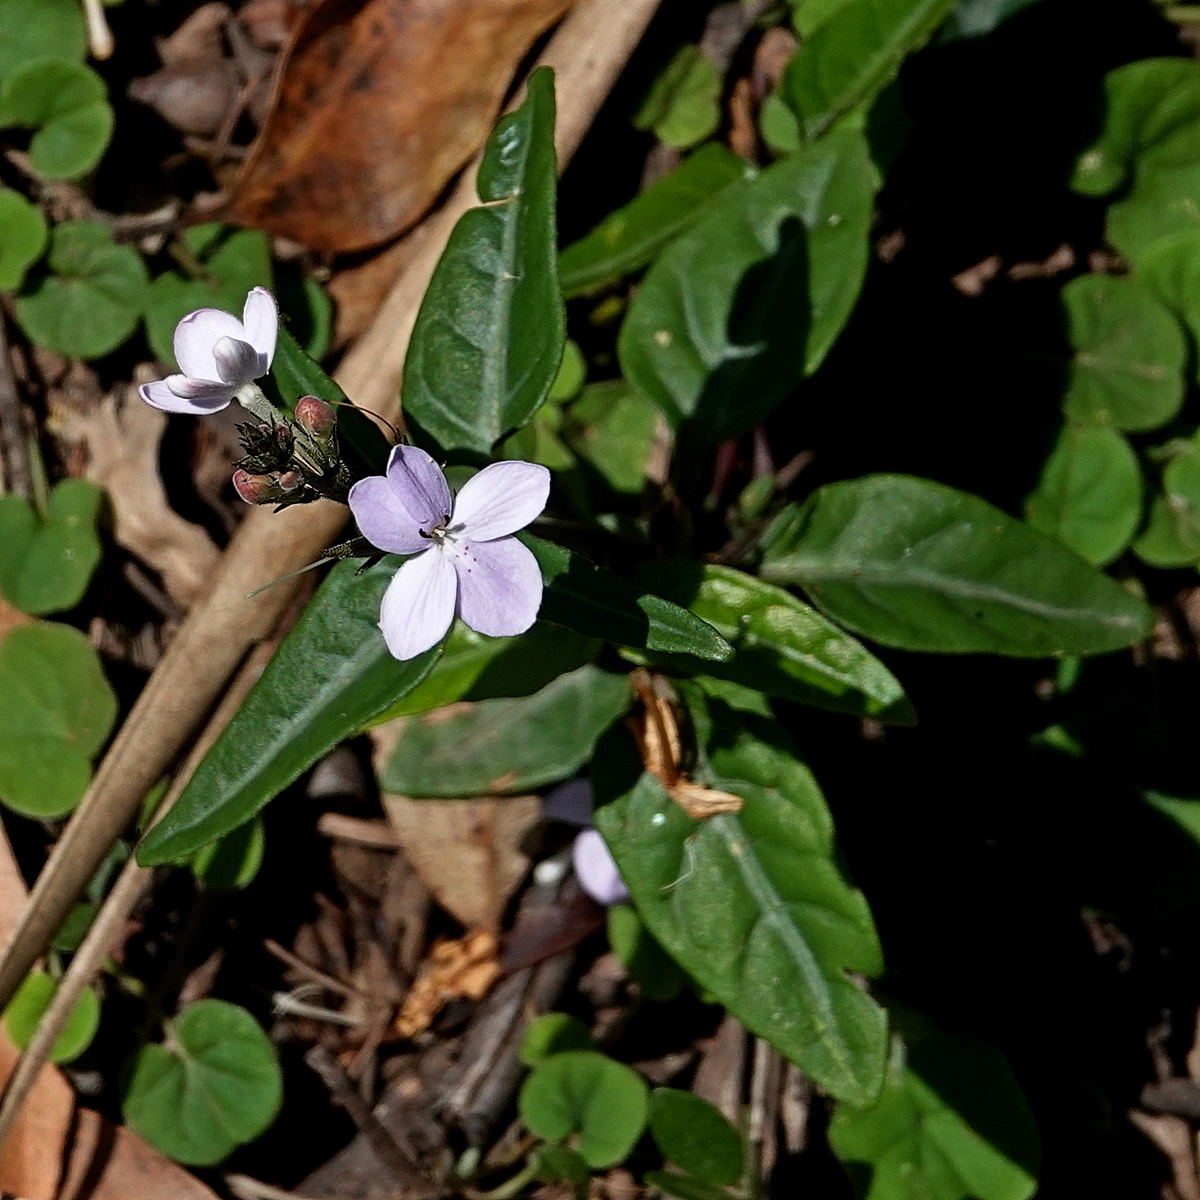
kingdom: Plantae
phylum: Tracheophyta
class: Magnoliopsida
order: Lamiales
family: Acanthaceae
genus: Pseuderanthemum
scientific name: Pseuderanthemum variabile
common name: Night and afternoon
